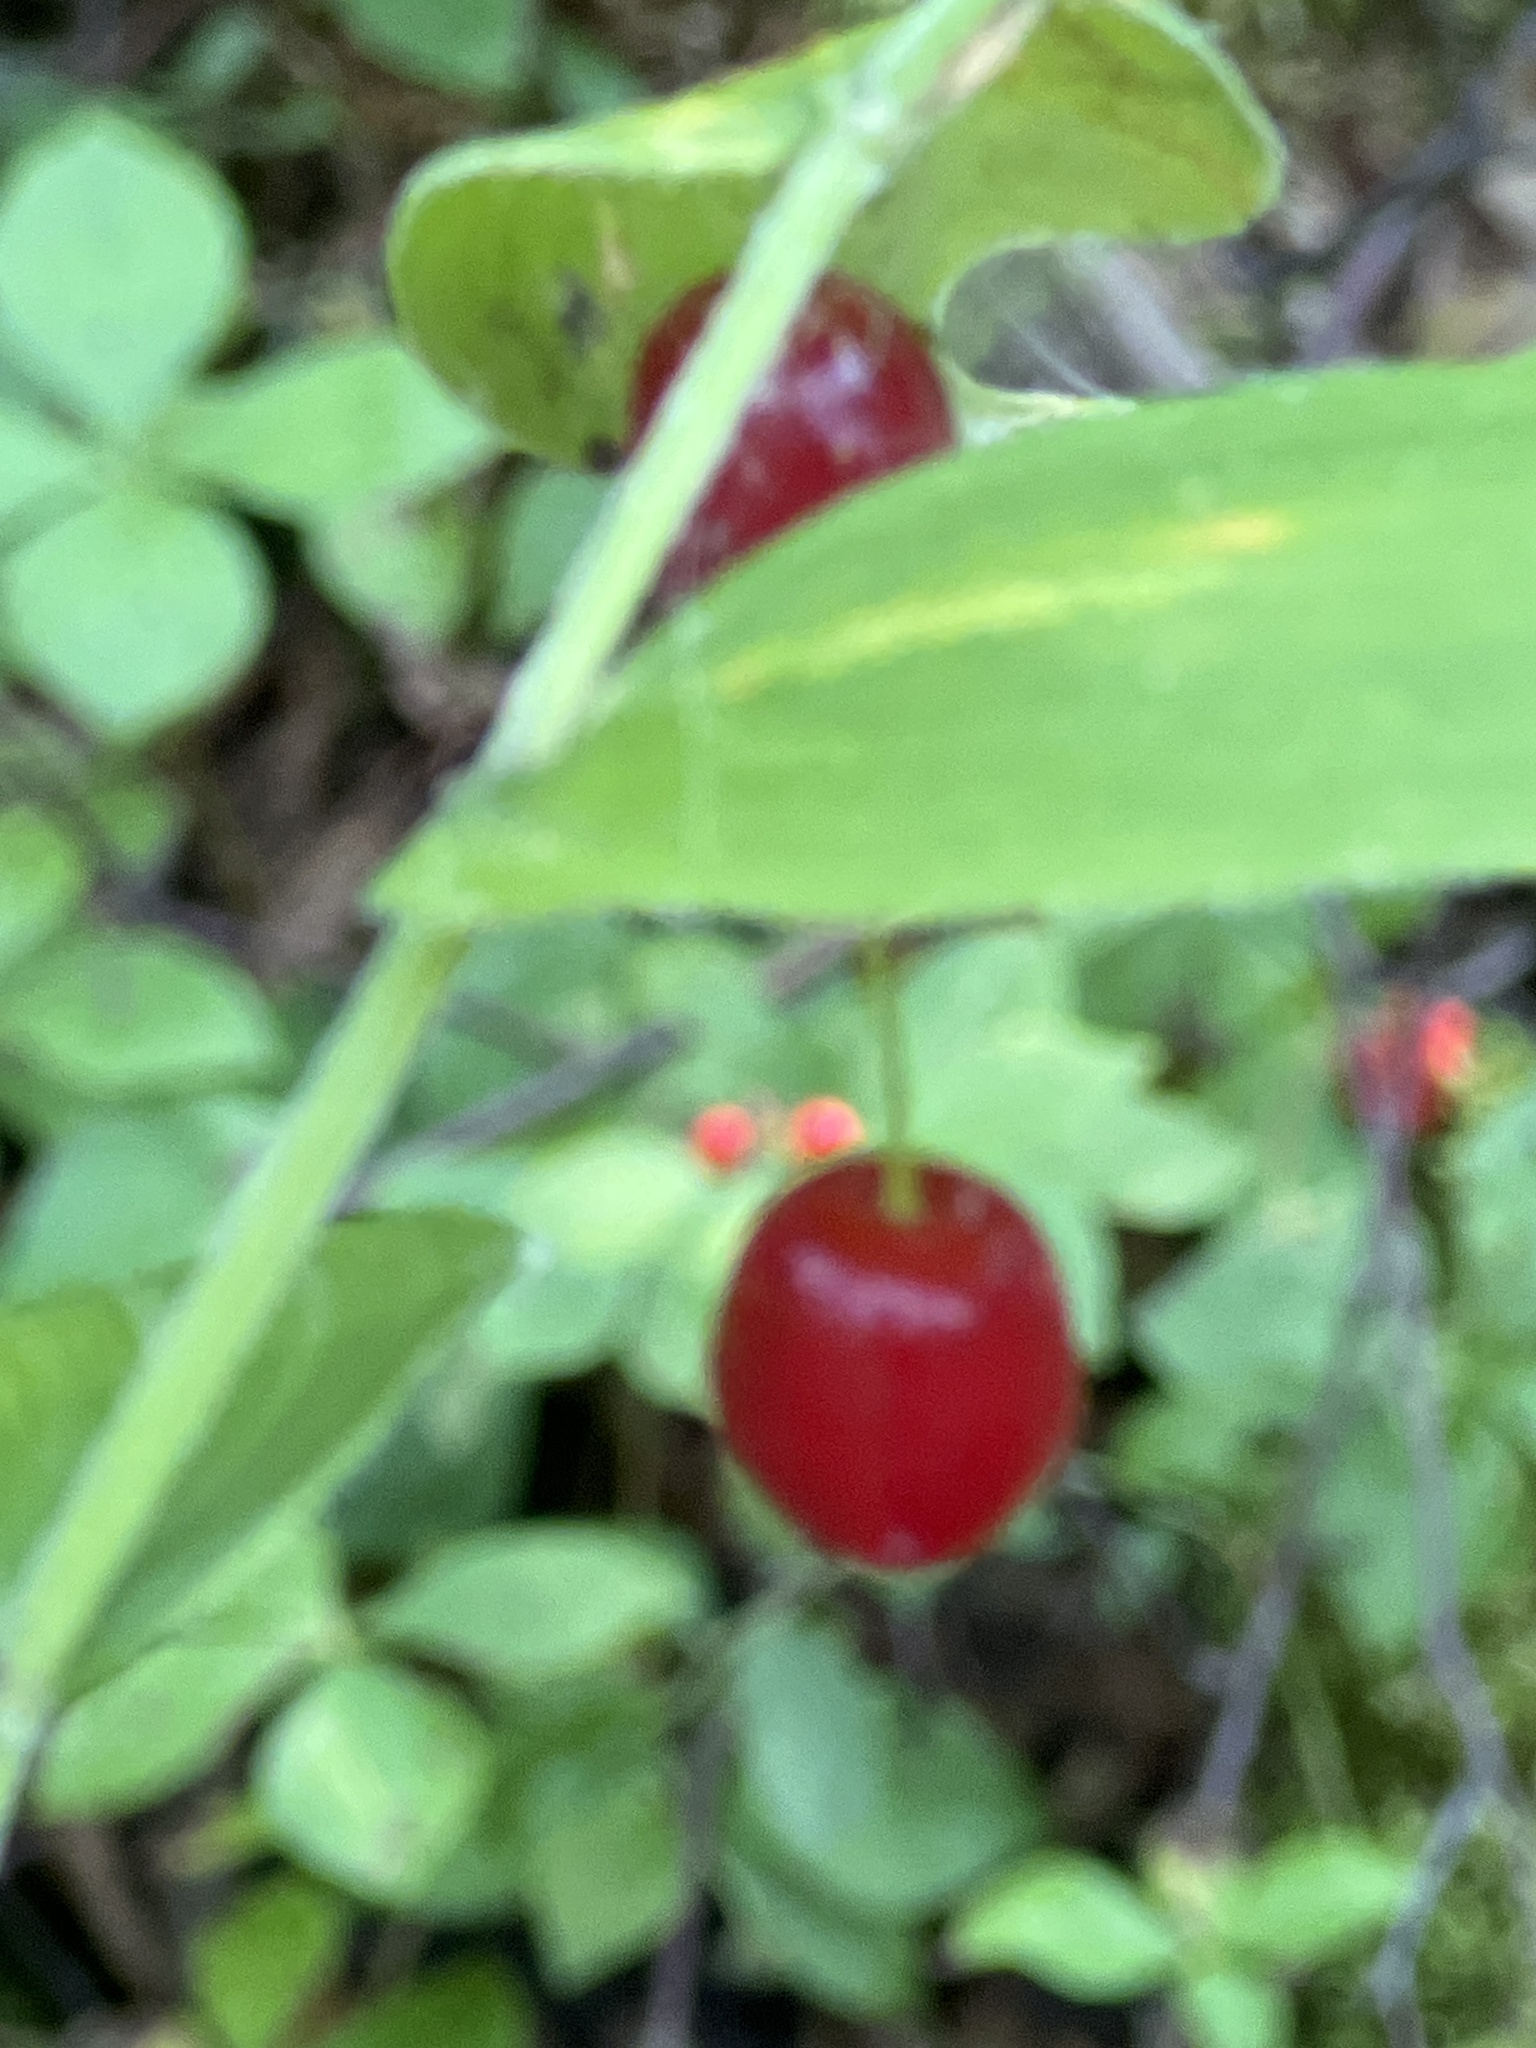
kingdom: Plantae
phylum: Tracheophyta
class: Liliopsida
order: Liliales
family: Liliaceae
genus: Streptopus
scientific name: Streptopus lanceolatus
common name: Rose mandarin
